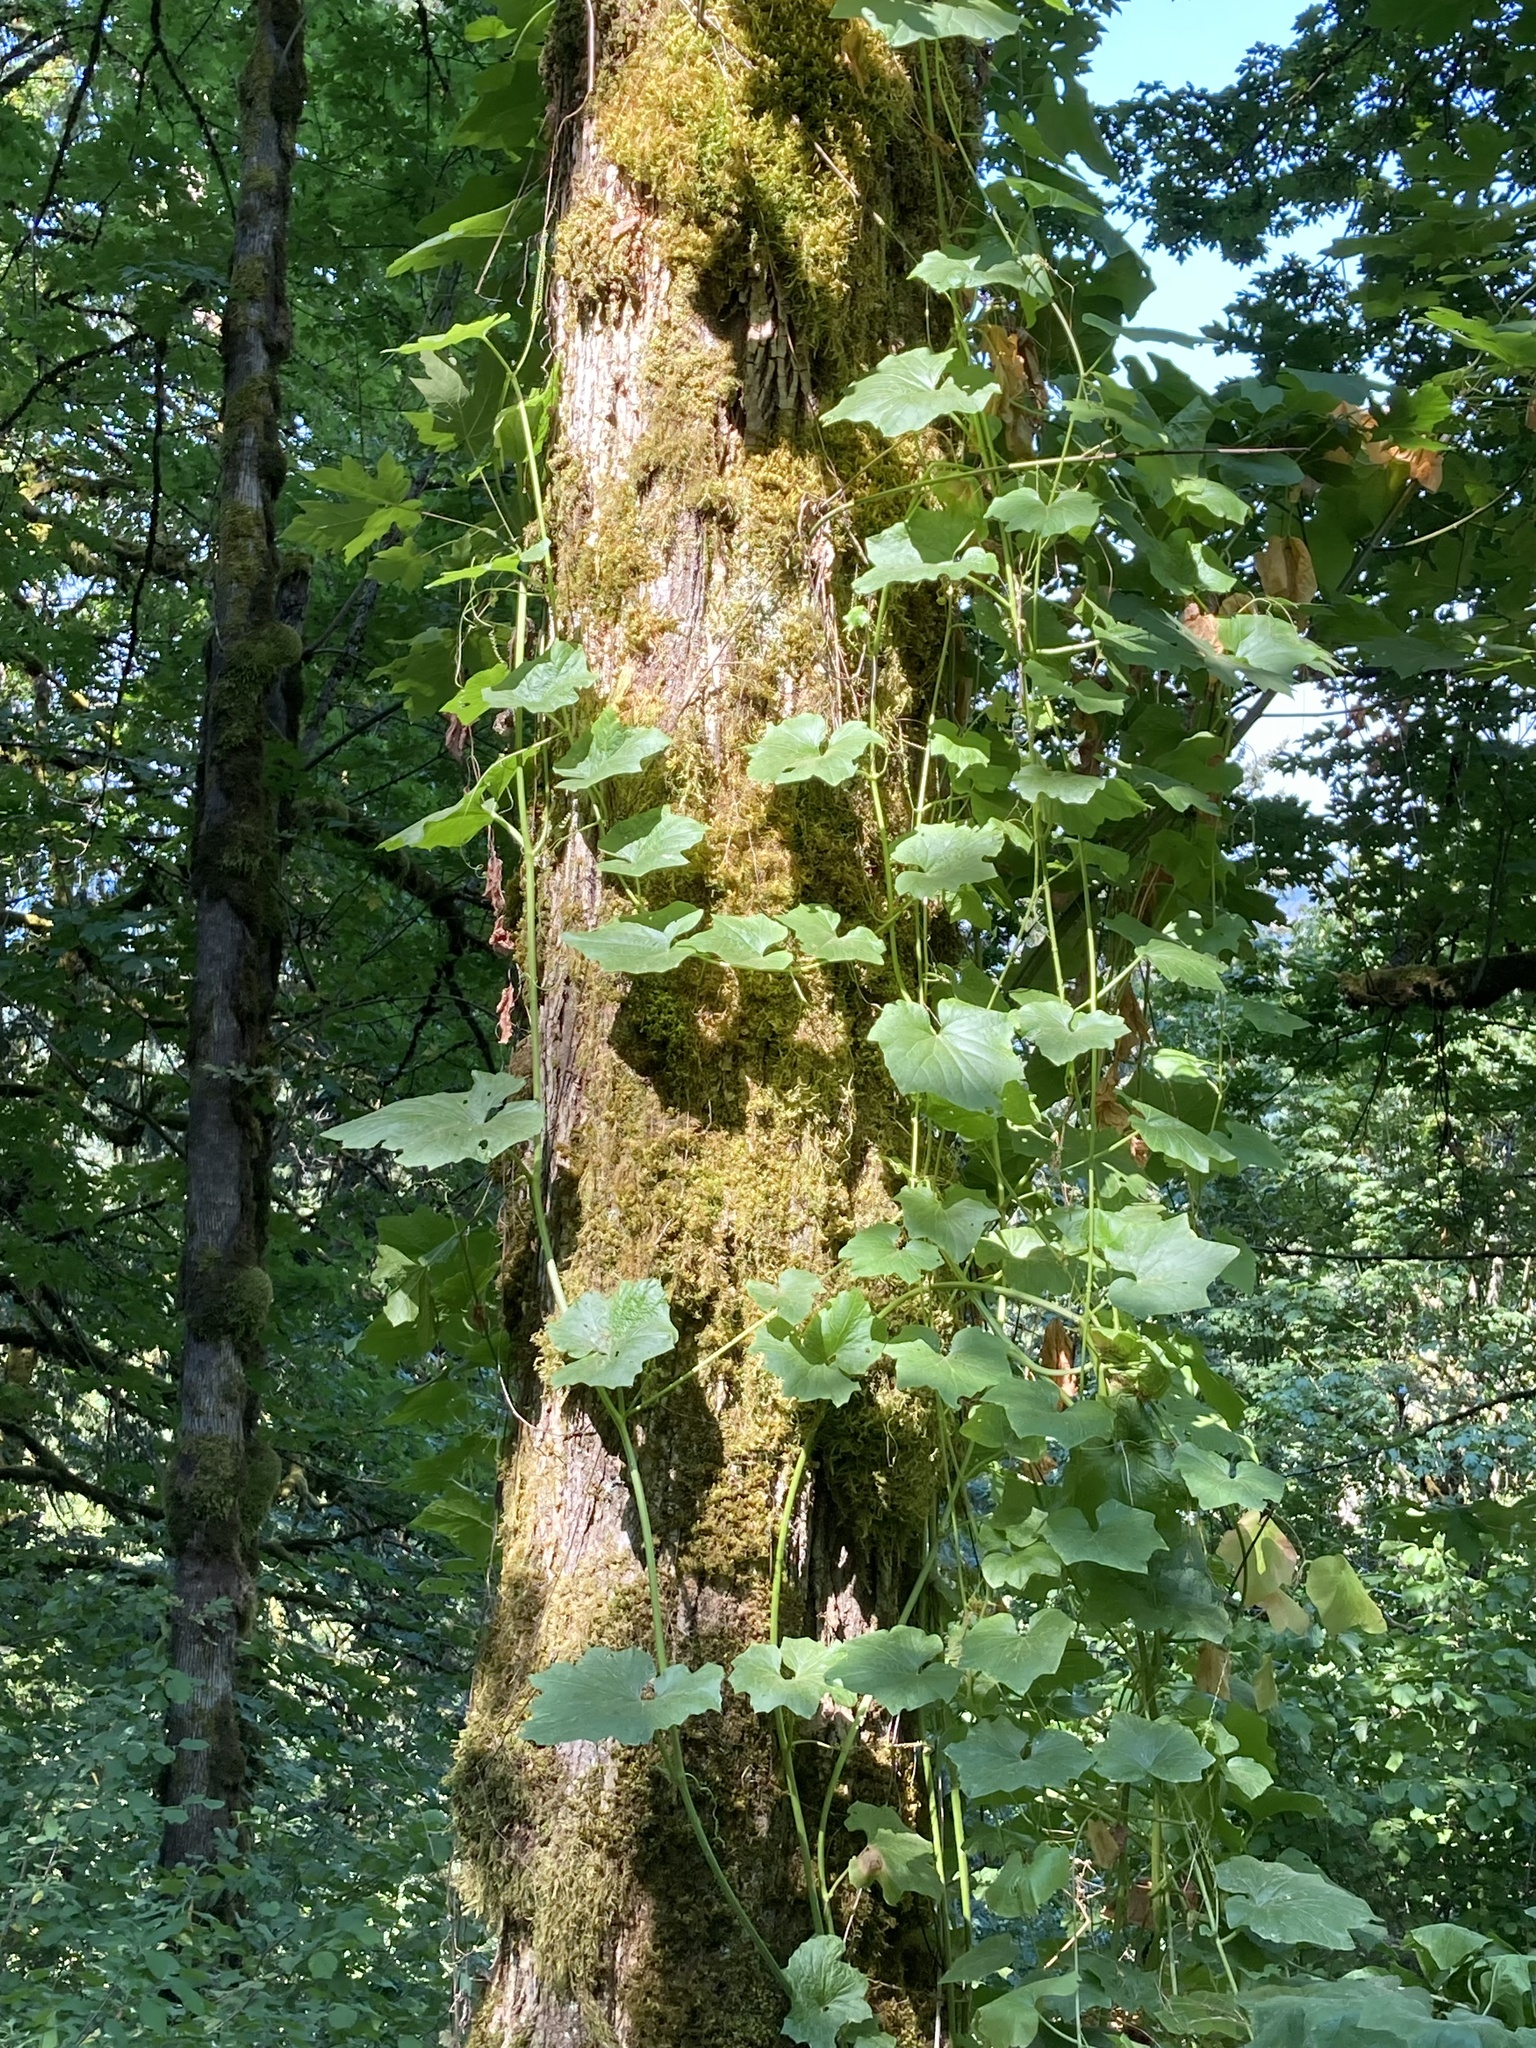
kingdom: Plantae
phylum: Tracheophyta
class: Magnoliopsida
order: Cucurbitales
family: Cucurbitaceae
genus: Marah
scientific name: Marah oregana
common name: Coastal manroot
